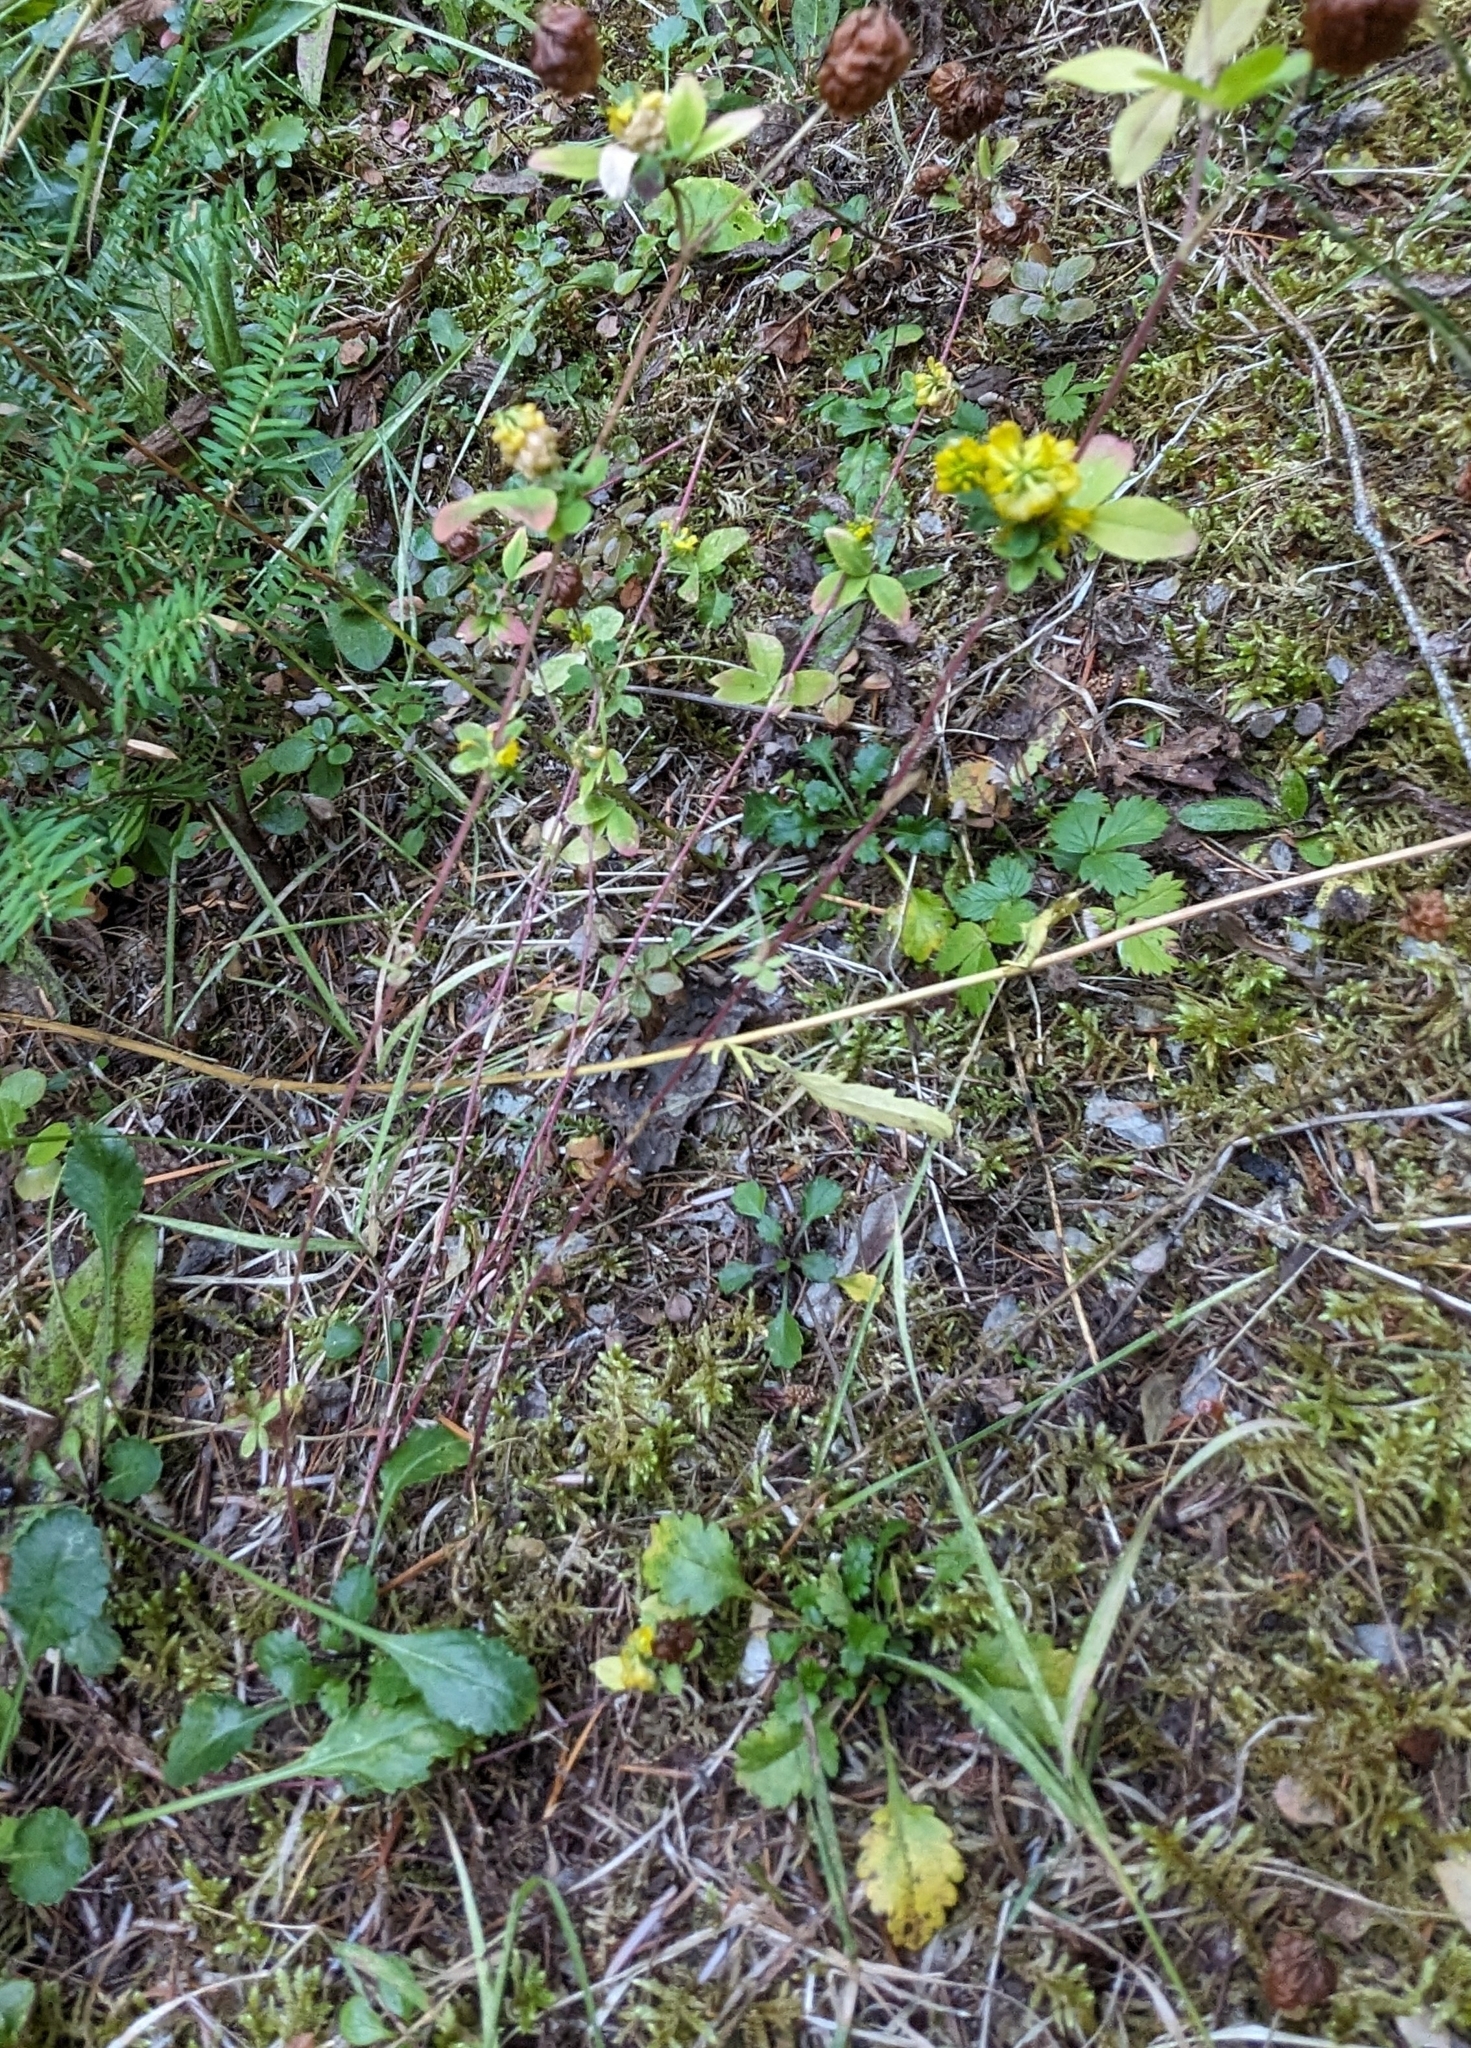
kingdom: Plantae
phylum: Tracheophyta
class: Magnoliopsida
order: Fabales
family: Fabaceae
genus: Trifolium
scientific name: Trifolium aureum
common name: Golden clover
